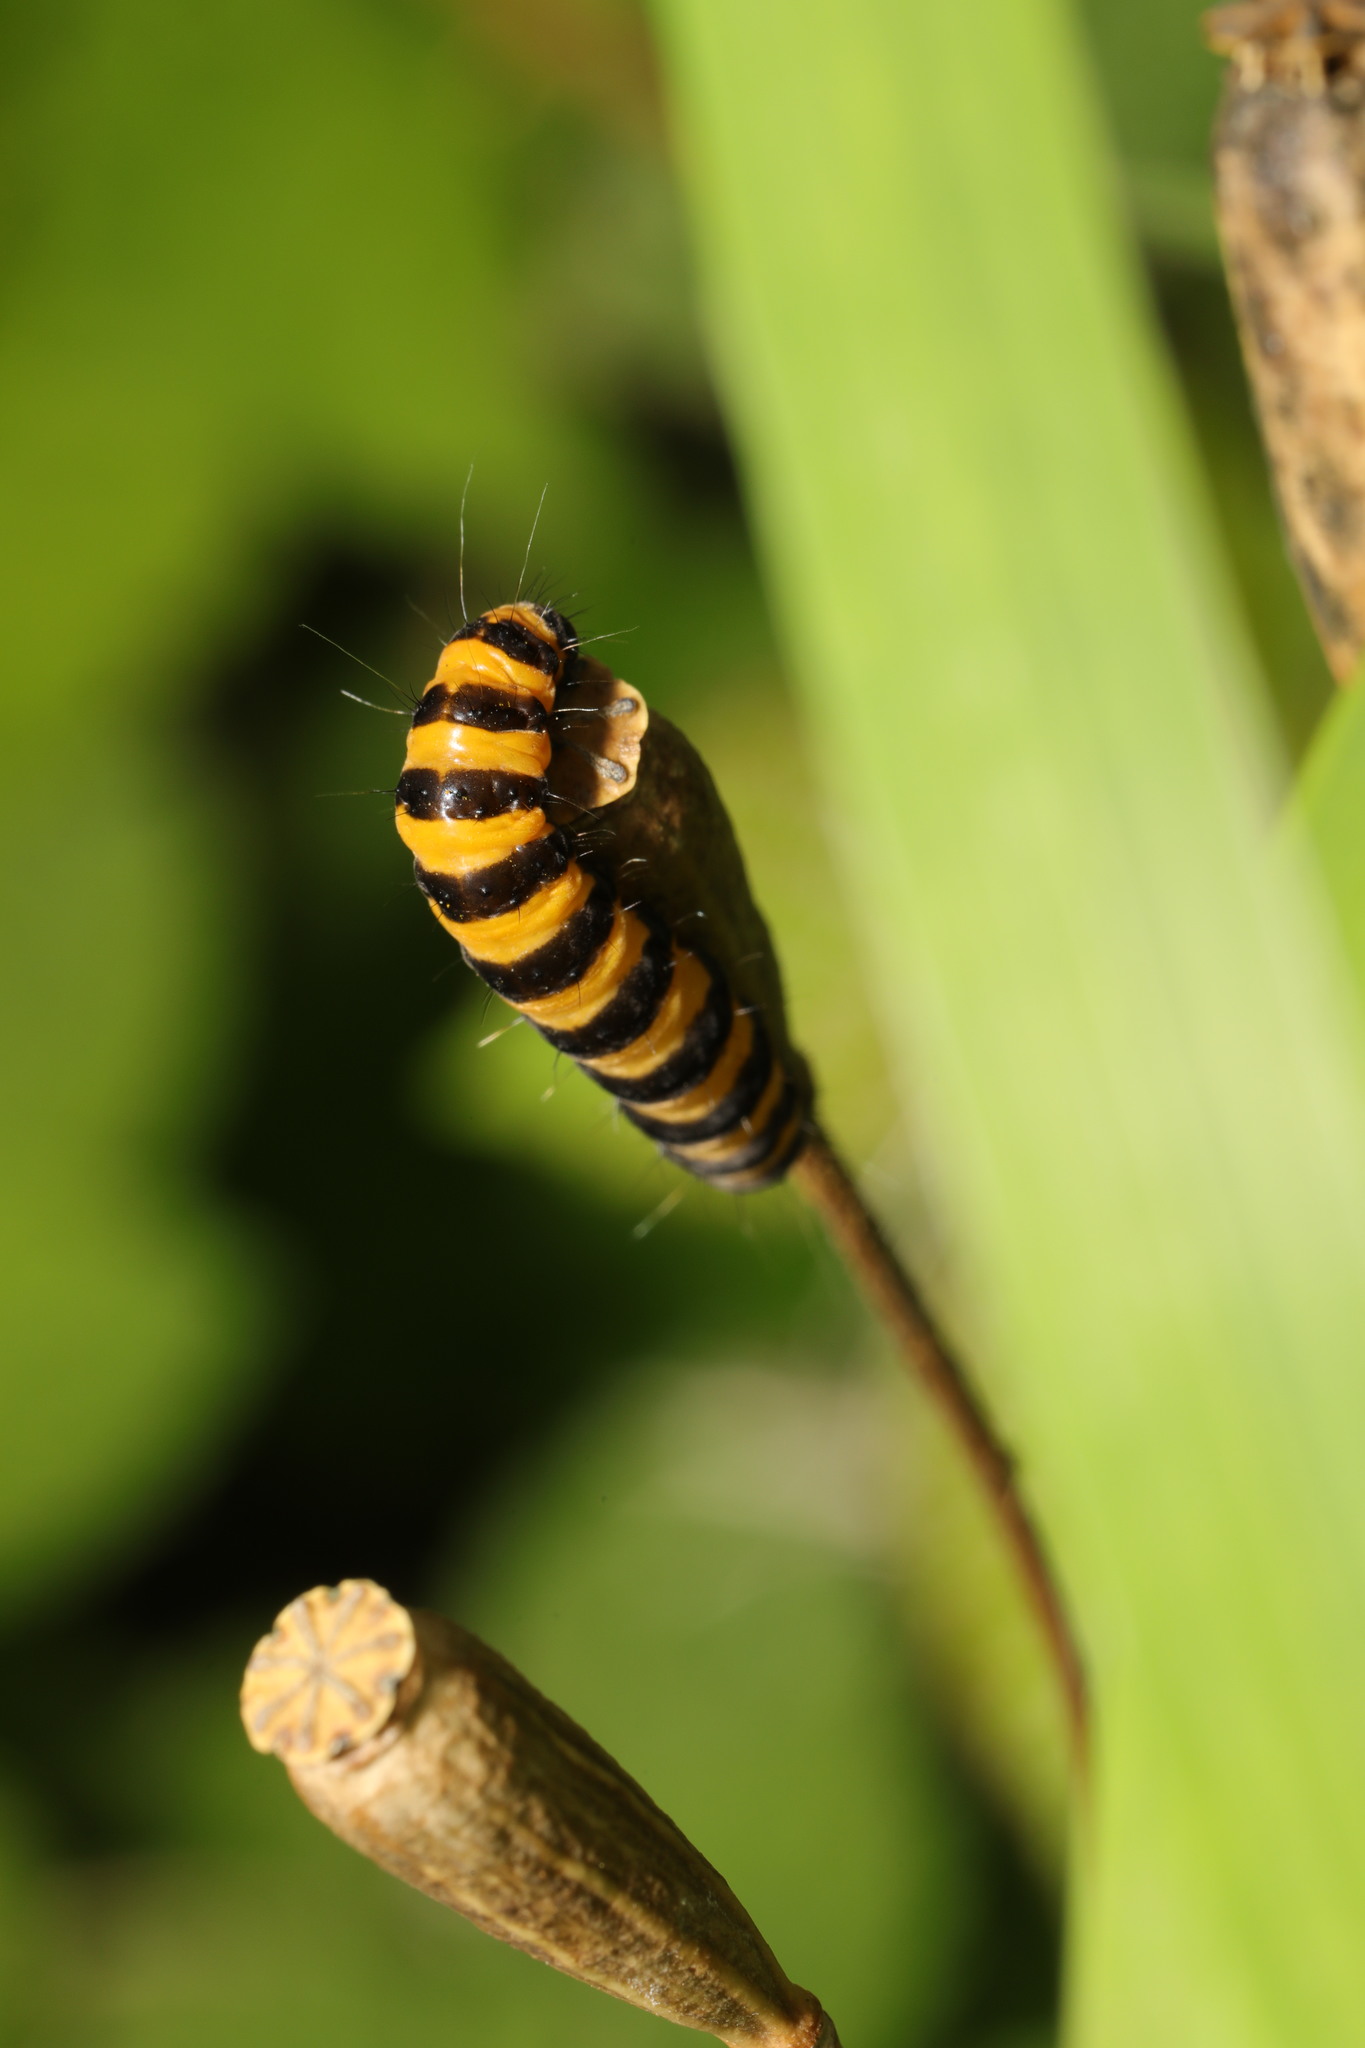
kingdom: Animalia
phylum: Arthropoda
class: Insecta
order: Lepidoptera
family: Erebidae
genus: Tyria
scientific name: Tyria jacobaeae
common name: Cinnabar
